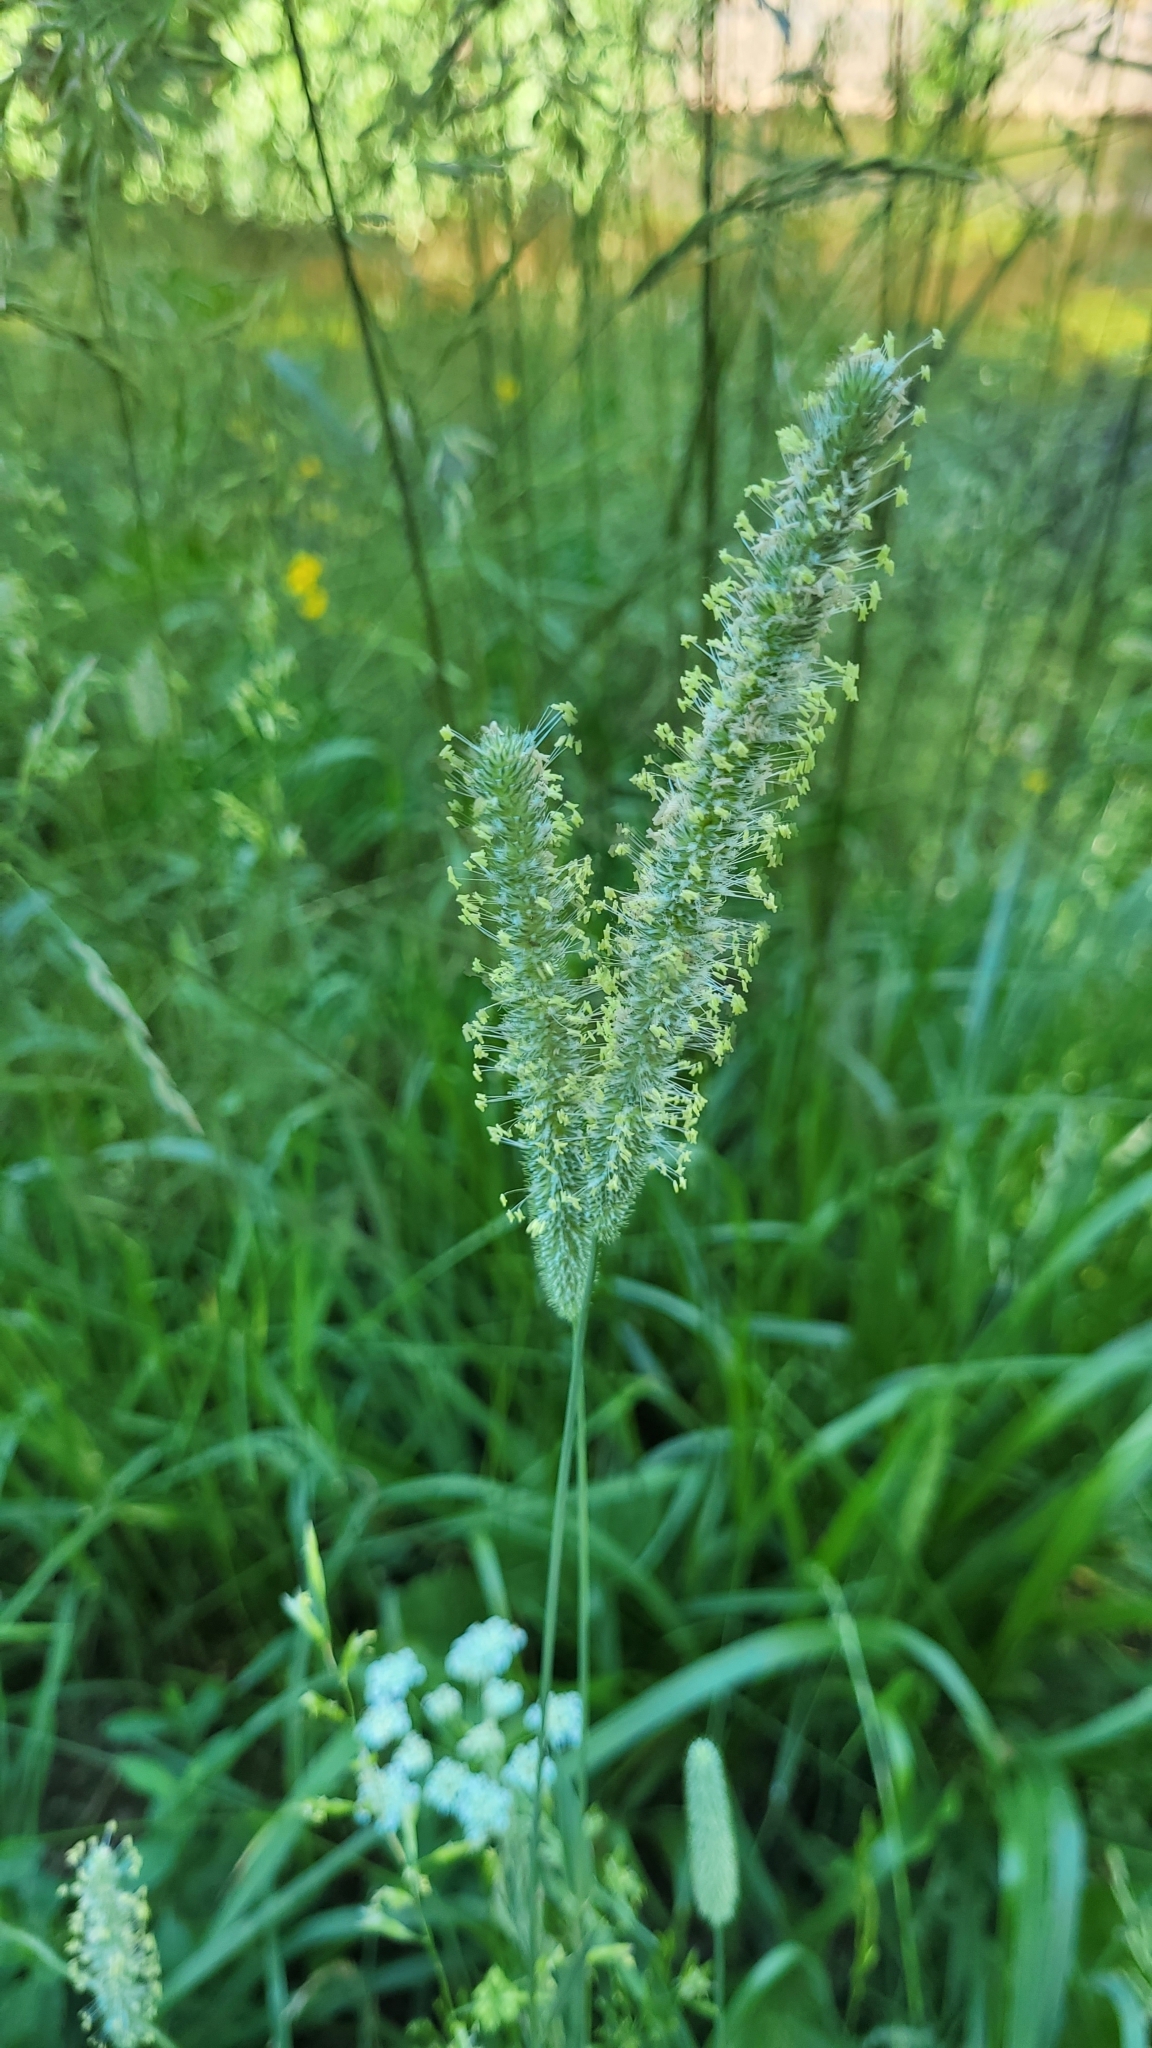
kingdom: Plantae
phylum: Tracheophyta
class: Liliopsida
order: Poales
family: Poaceae
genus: Phleum
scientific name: Phleum pratense
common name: Timothy grass
